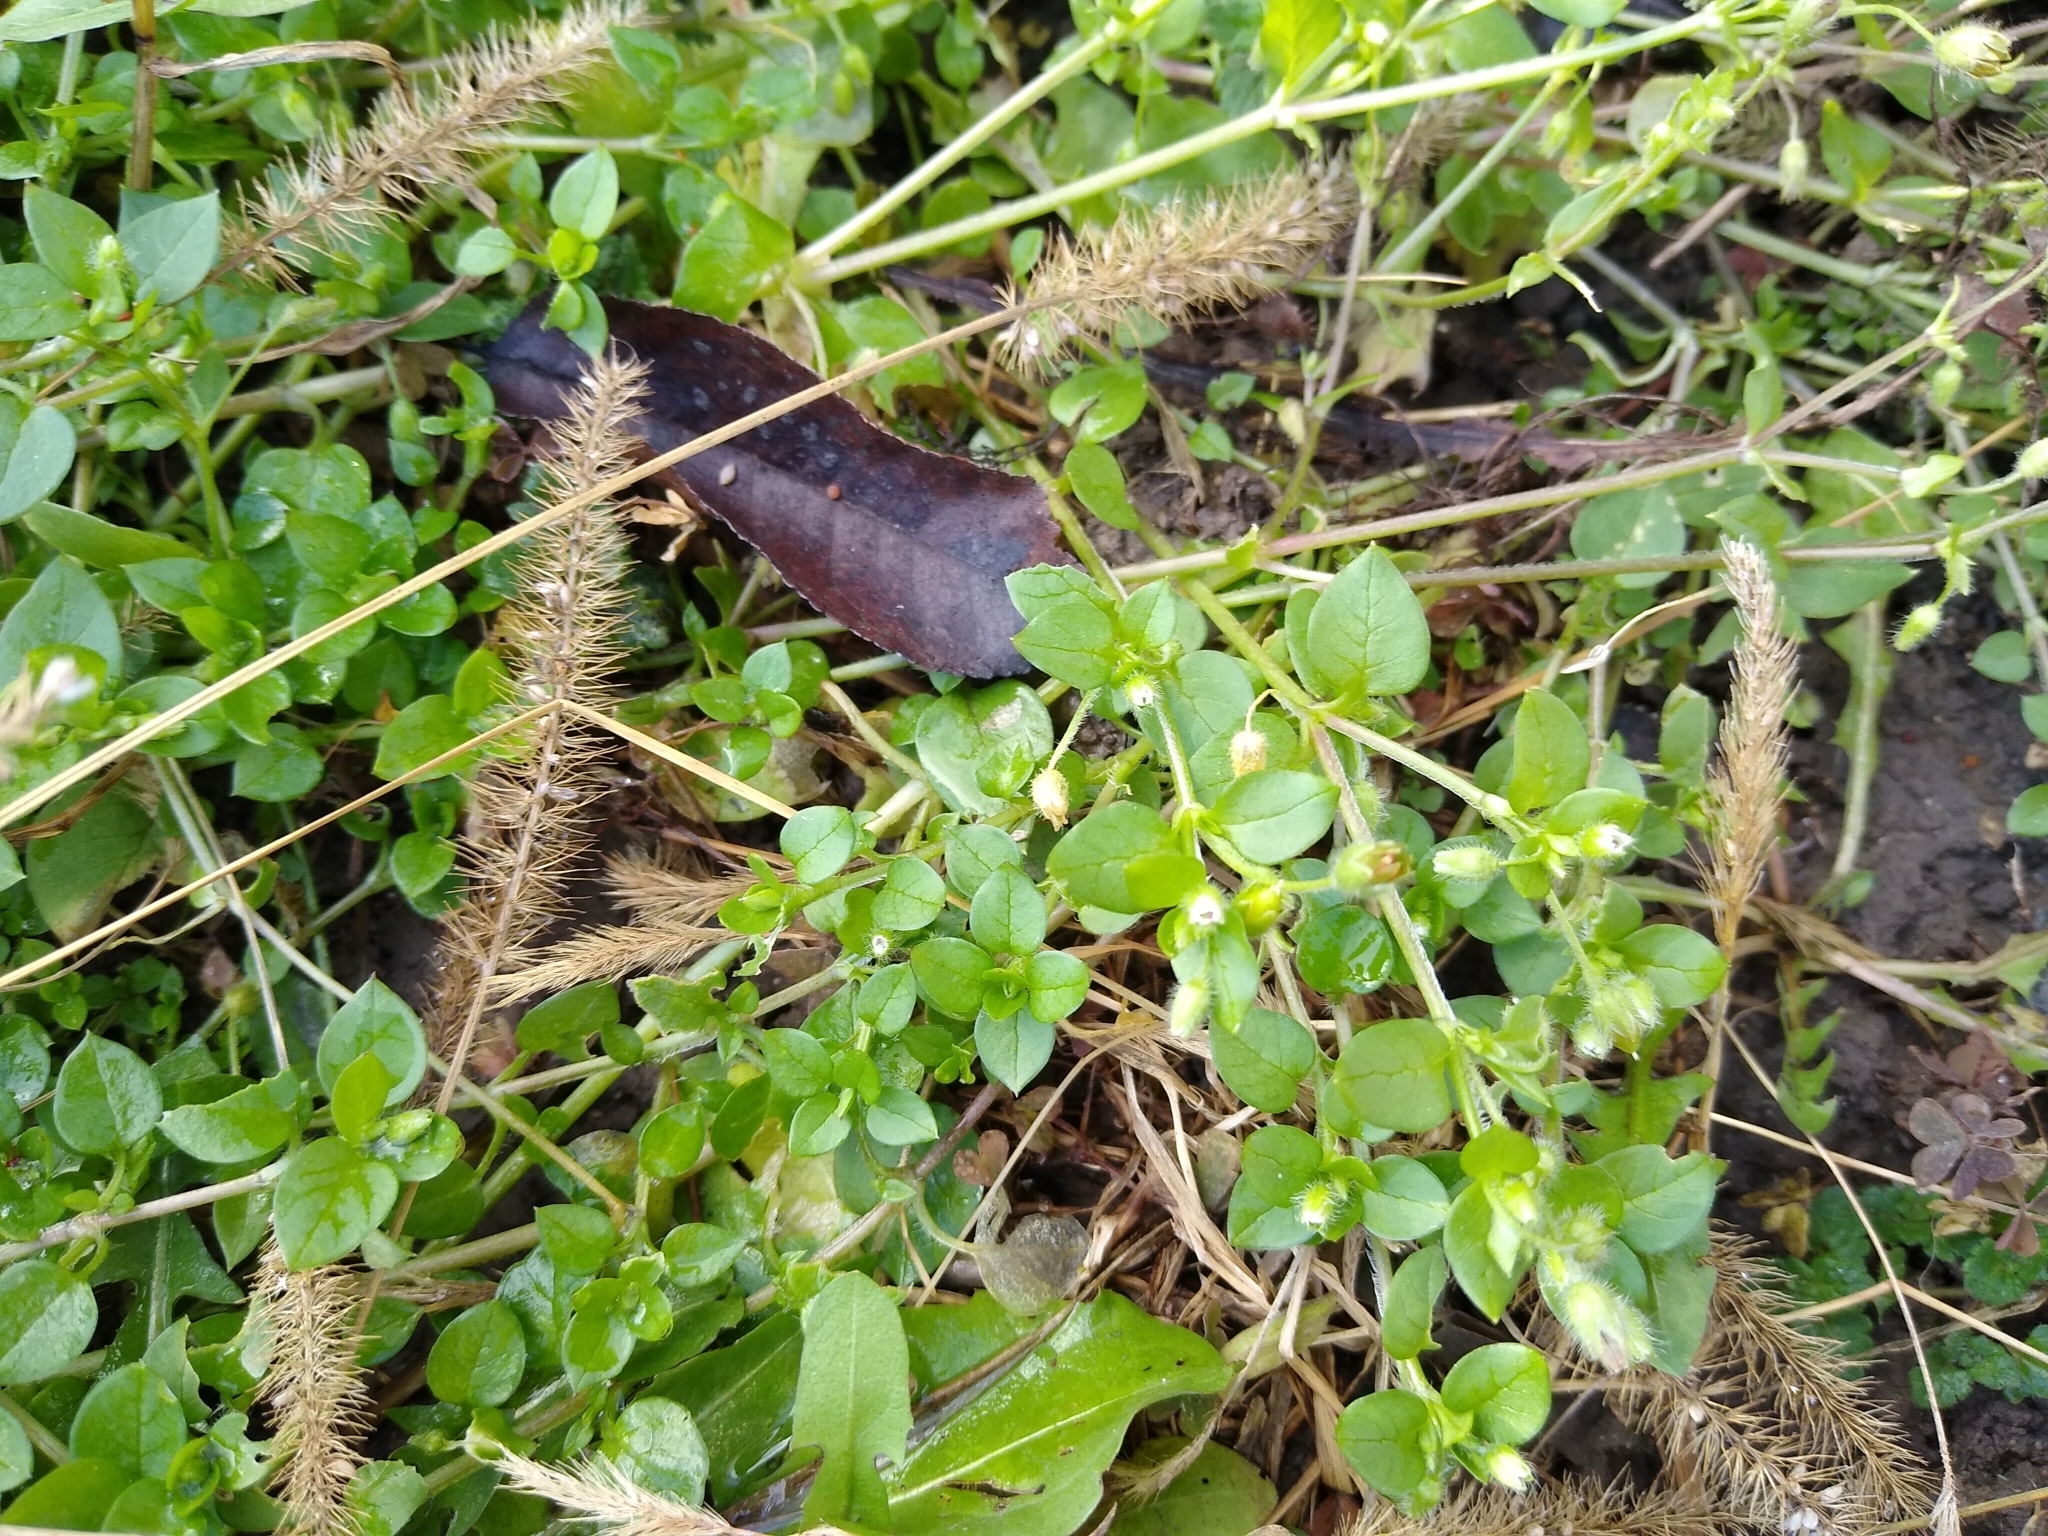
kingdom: Plantae
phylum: Tracheophyta
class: Magnoliopsida
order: Caryophyllales
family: Caryophyllaceae
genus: Stellaria
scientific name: Stellaria media
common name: Common chickweed
